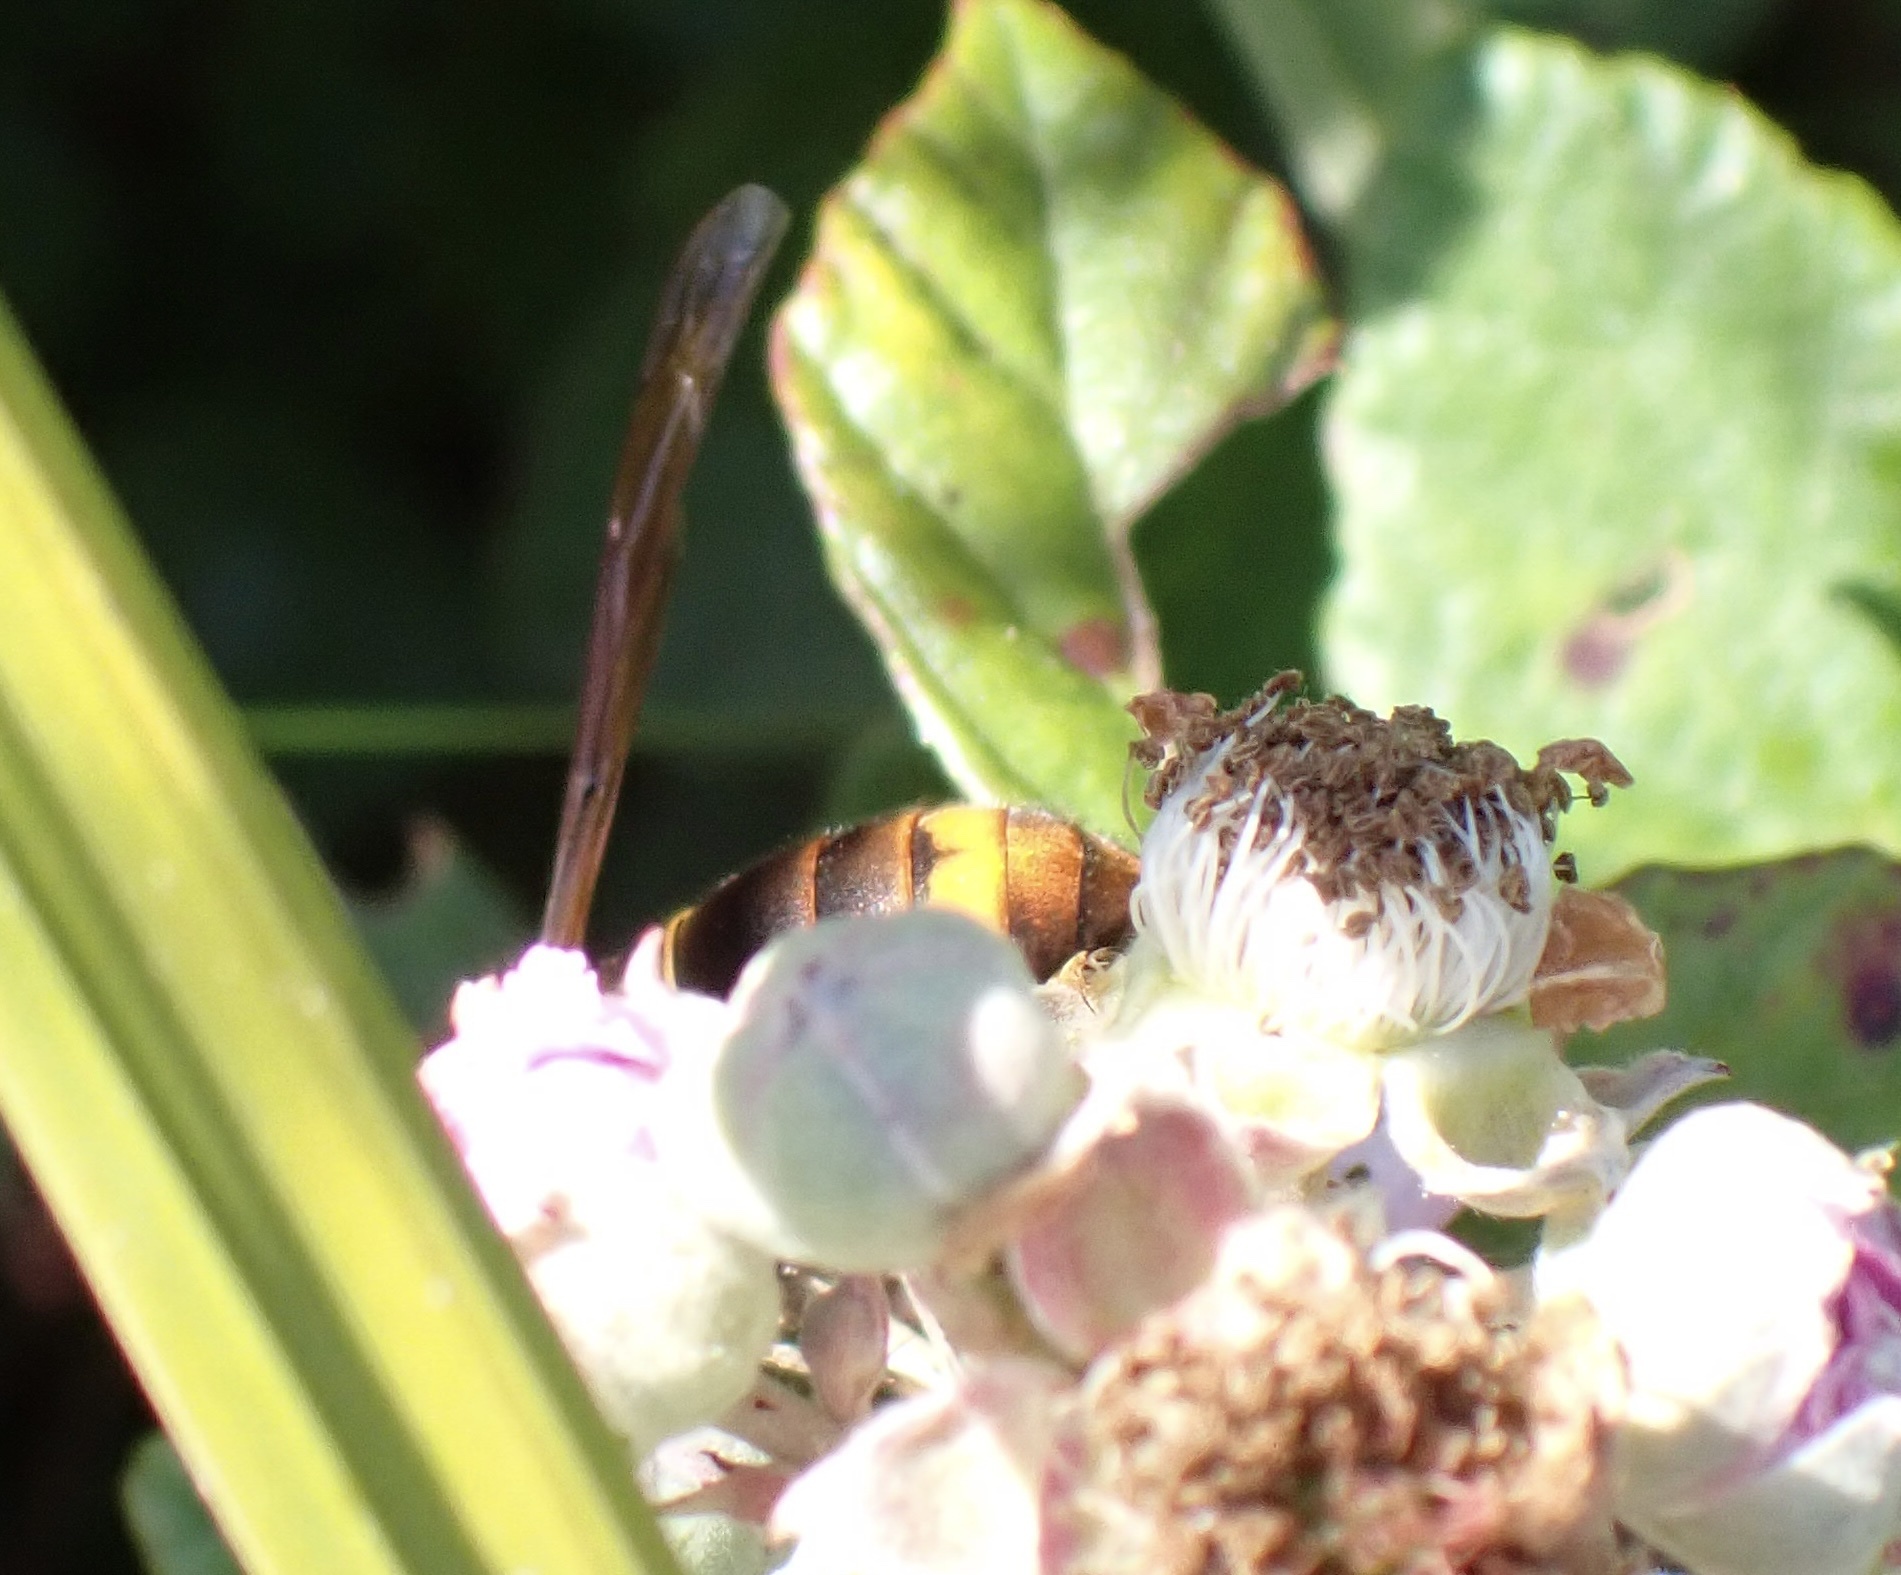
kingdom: Animalia
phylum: Arthropoda
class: Insecta
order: Hymenoptera
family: Vespidae
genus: Vespa
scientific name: Vespa velutina
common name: Asian hornet
